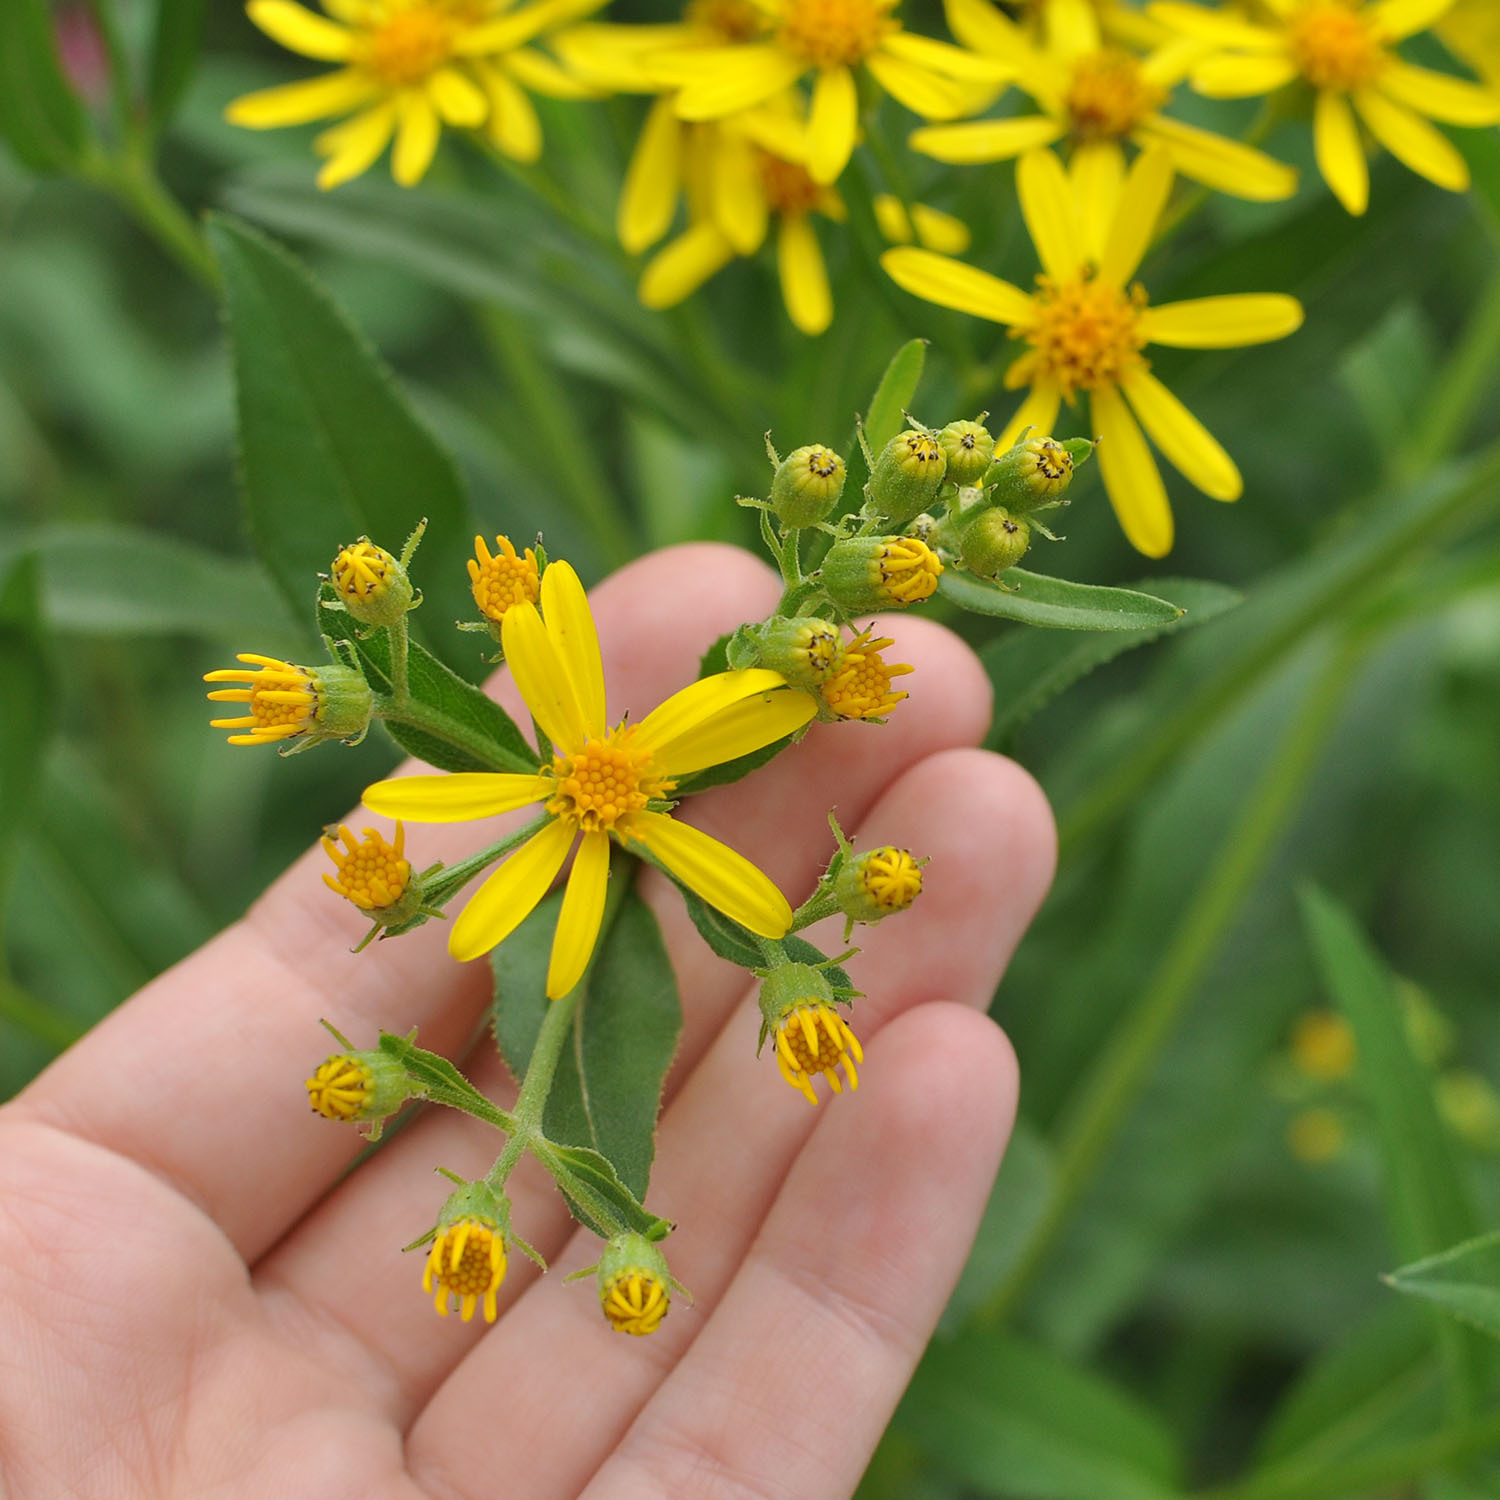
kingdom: Plantae
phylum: Tracheophyta
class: Magnoliopsida
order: Asterales
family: Asteraceae
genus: Senecio
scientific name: Senecio sarracenicus
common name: Broad-leaved ragwort
